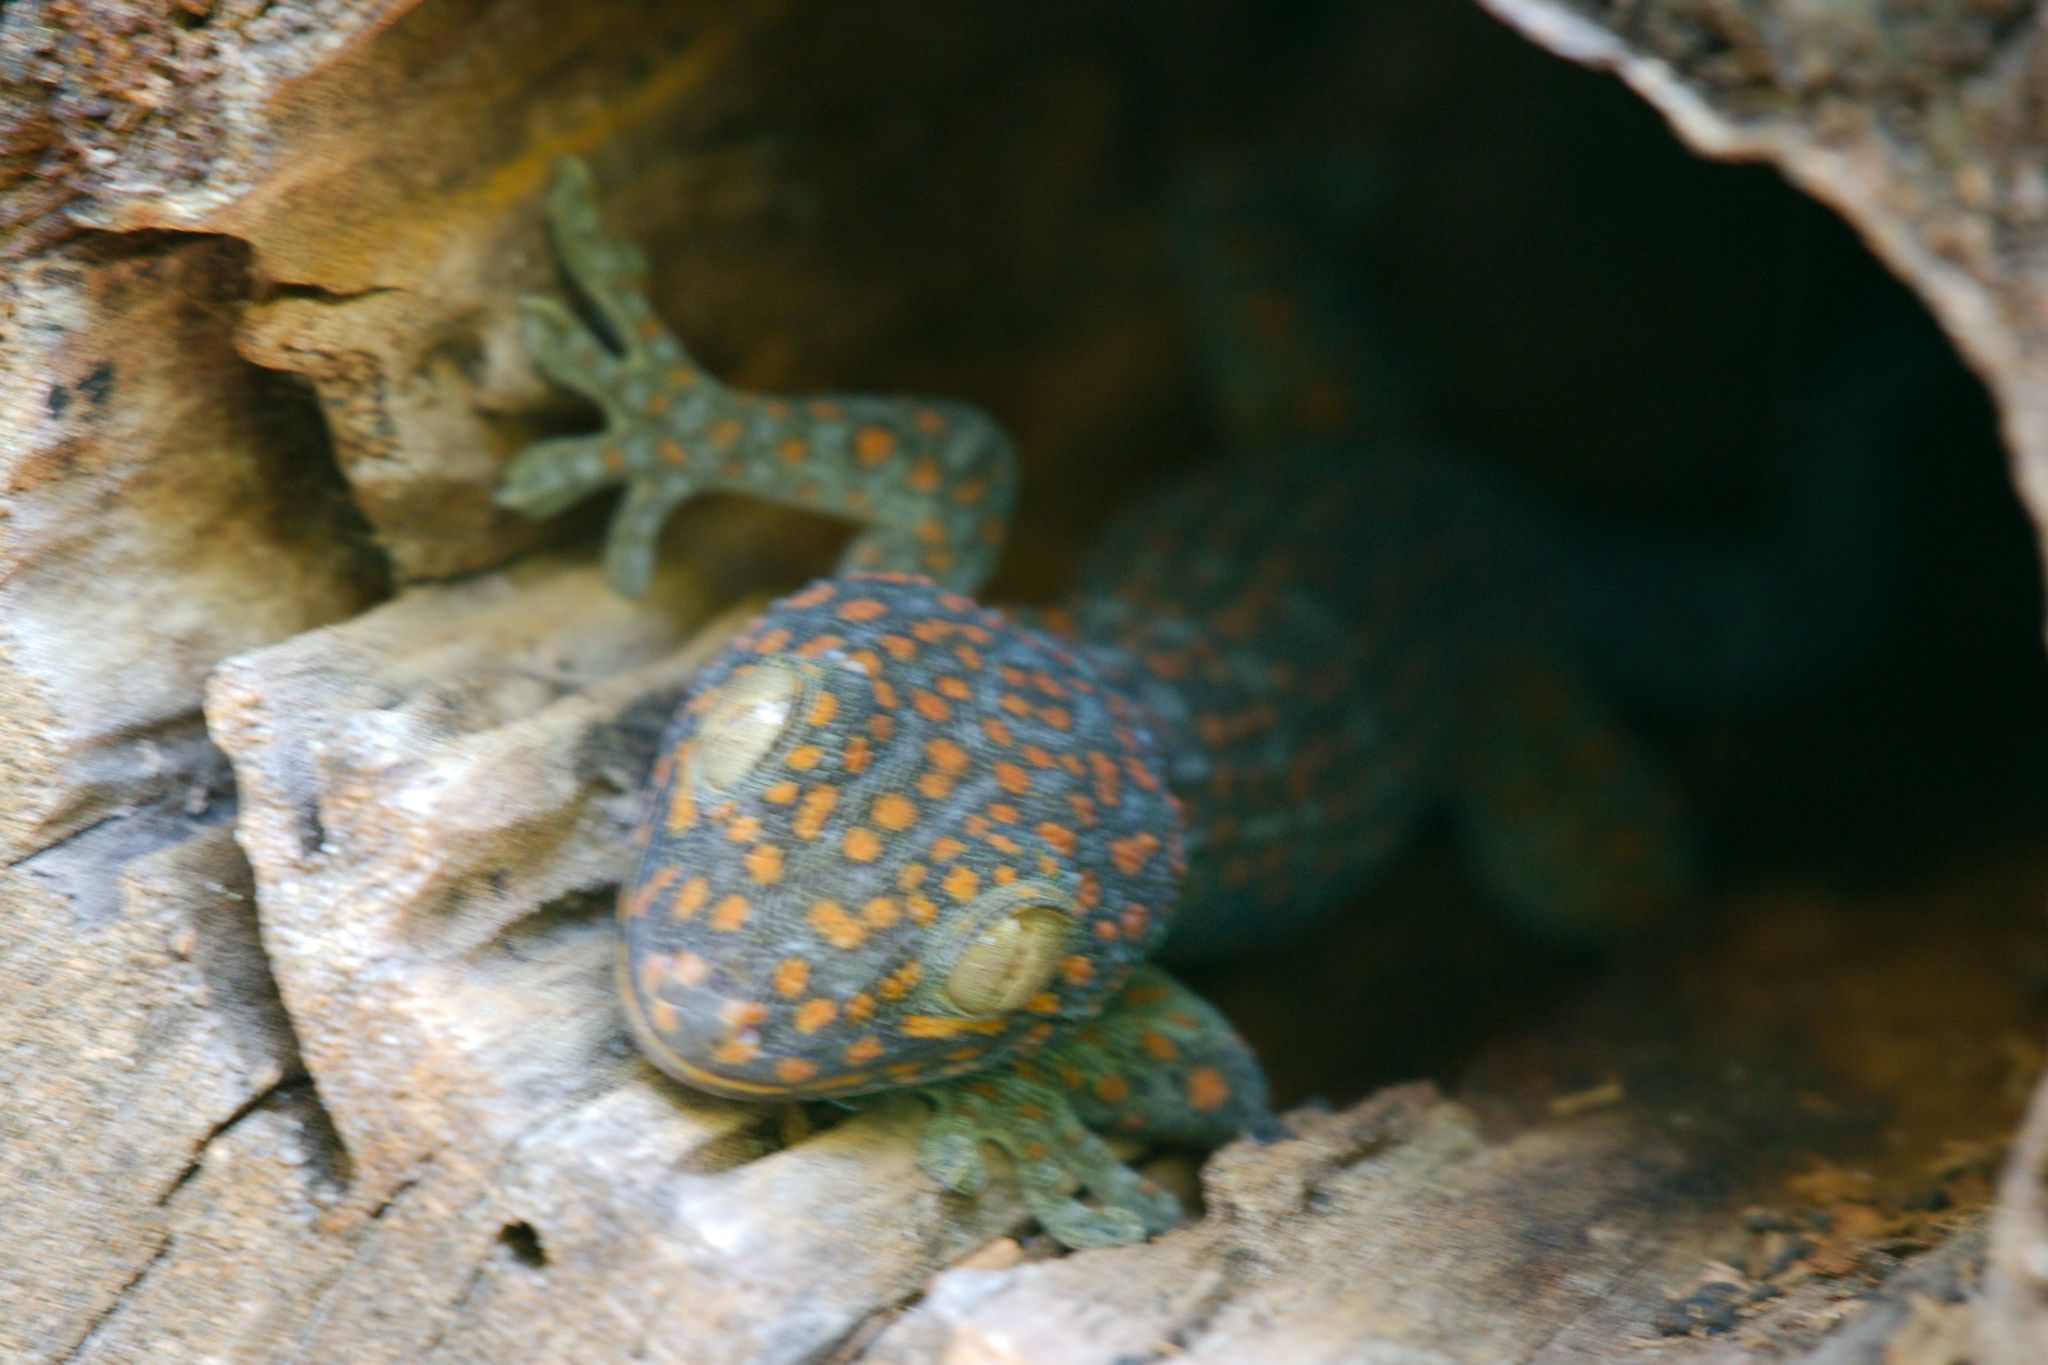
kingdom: Animalia
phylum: Chordata
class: Squamata
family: Gekkonidae
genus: Gekko
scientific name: Gekko gecko
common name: Tokay gecko
